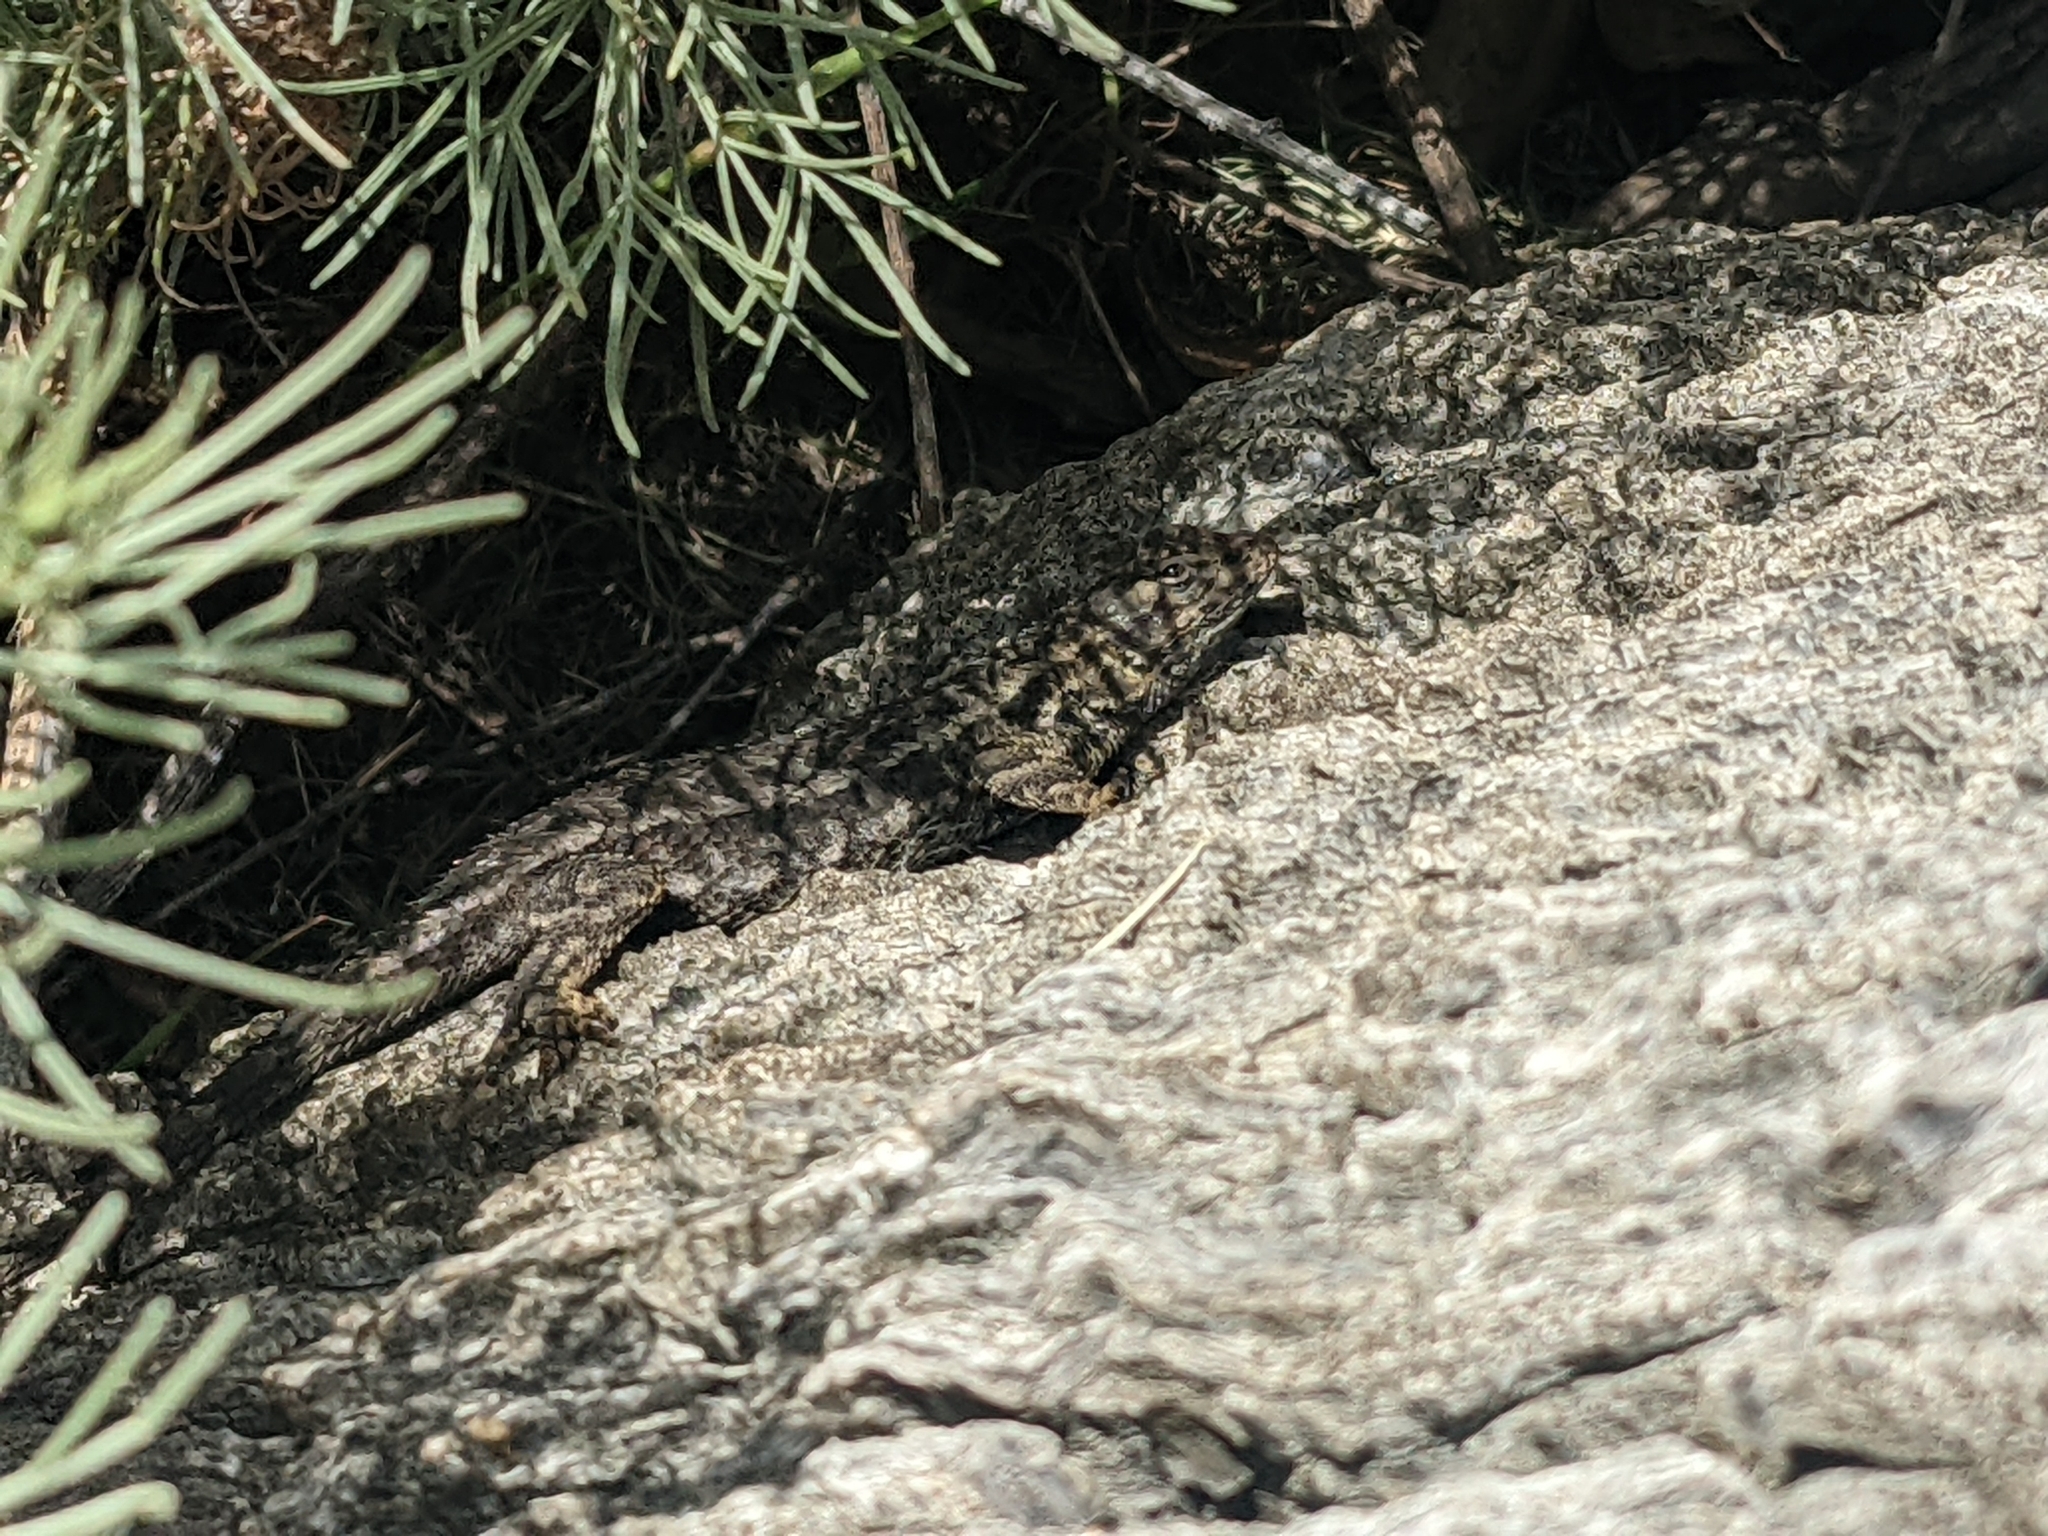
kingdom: Animalia
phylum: Chordata
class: Squamata
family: Phrynosomatidae
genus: Sceloporus
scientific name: Sceloporus occidentalis
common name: Western fence lizard
